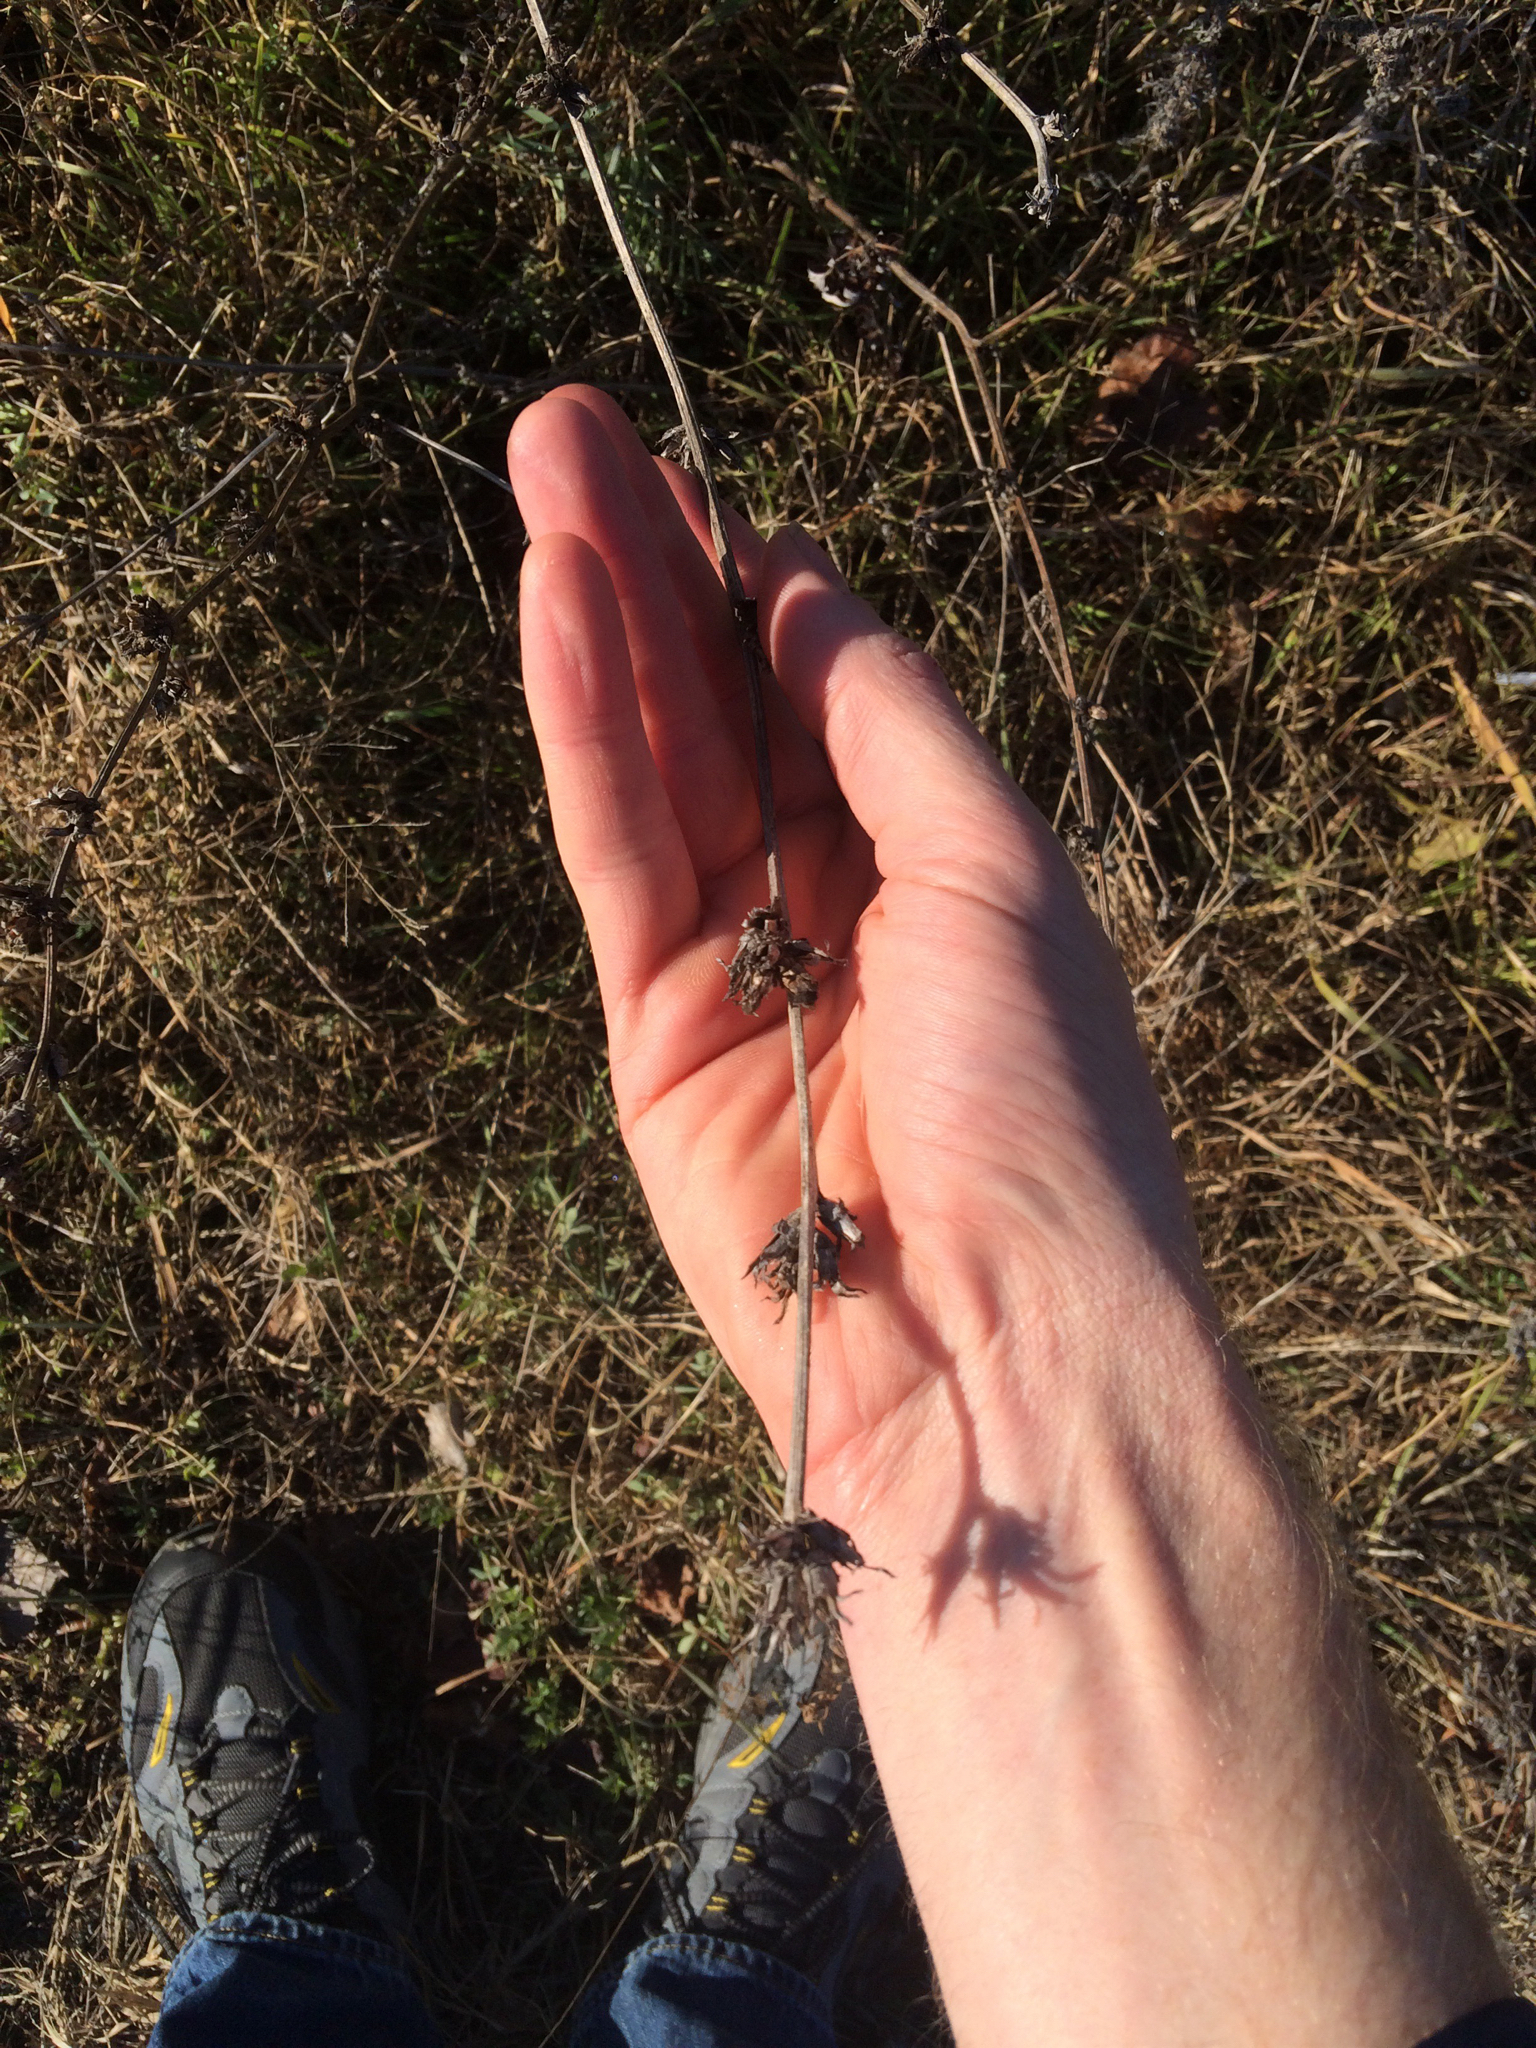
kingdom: Plantae
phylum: Tracheophyta
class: Magnoliopsida
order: Asterales
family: Asteraceae
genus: Cichorium
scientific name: Cichorium intybus
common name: Chicory
